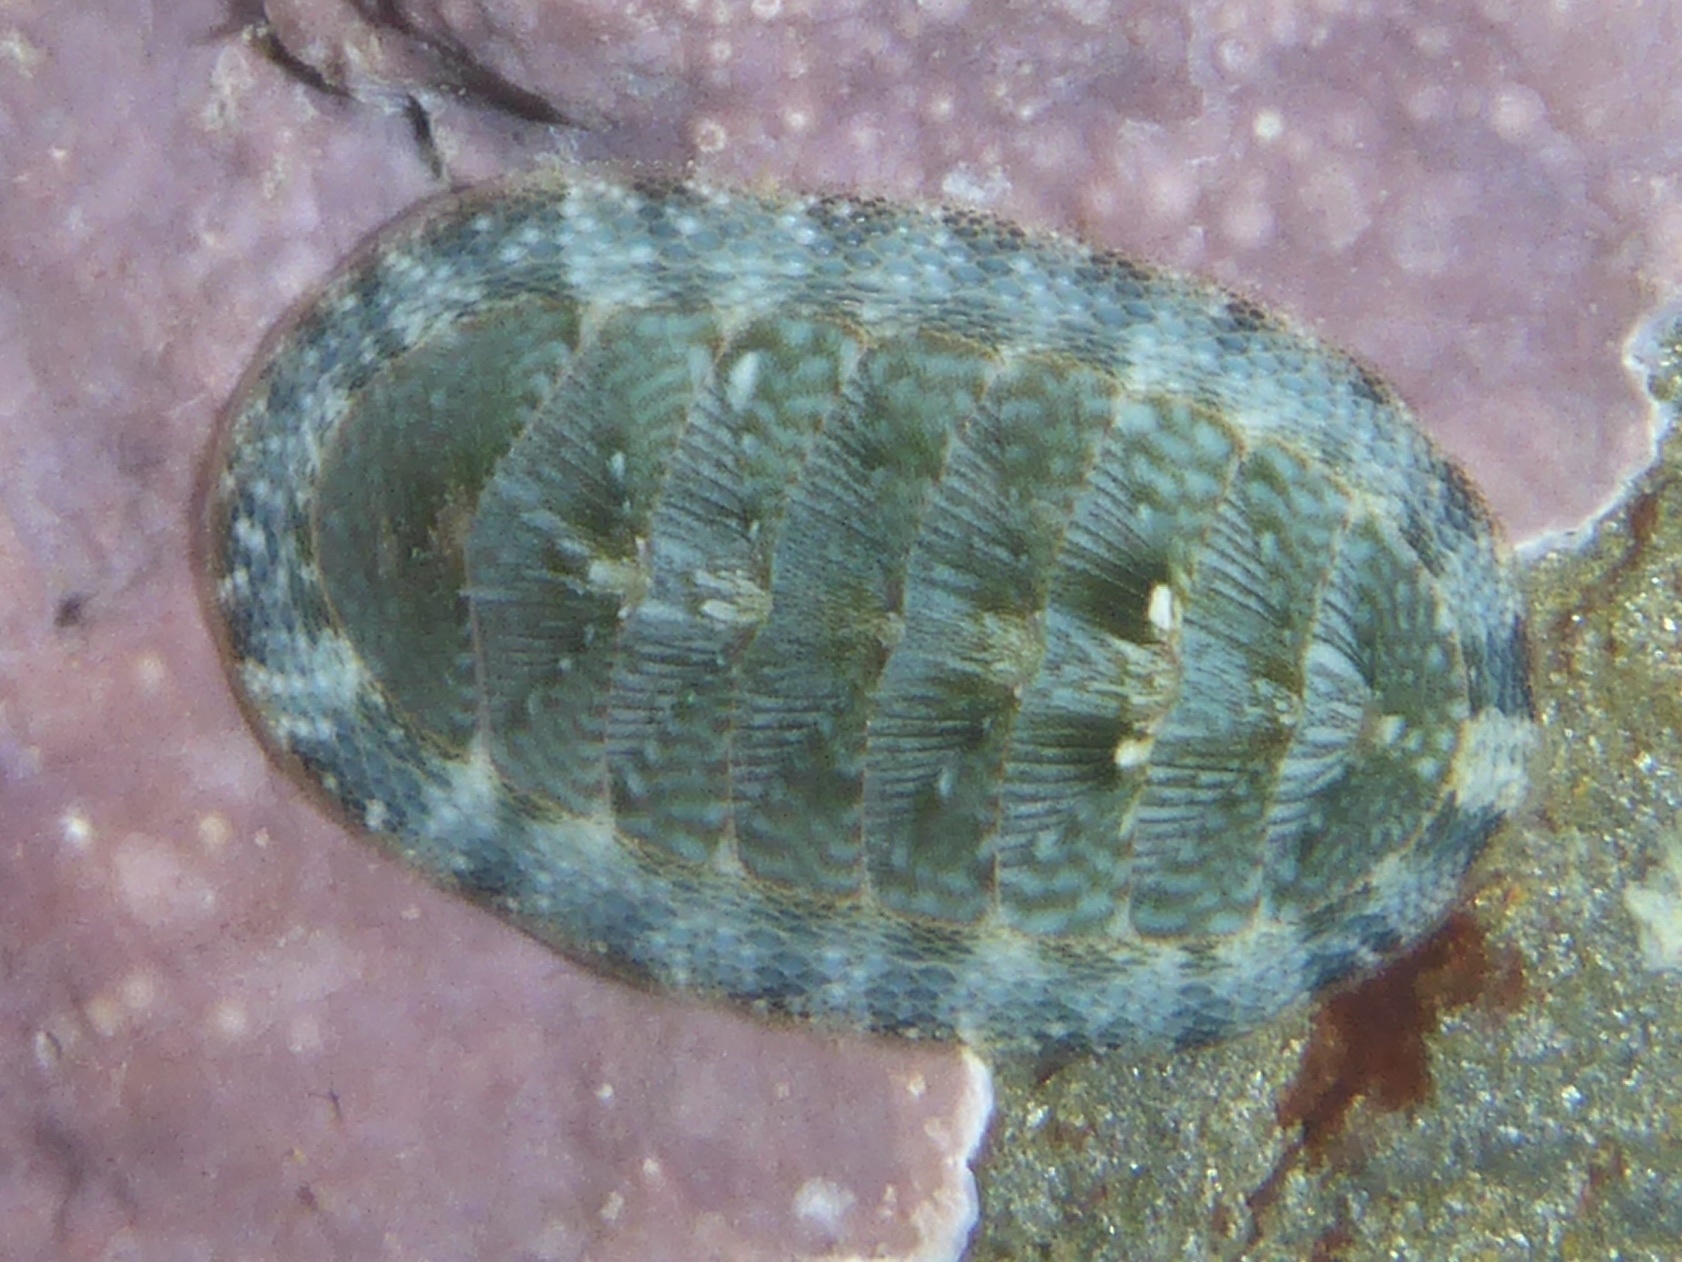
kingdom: Animalia
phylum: Mollusca
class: Polyplacophora
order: Chitonida
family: Chitonidae
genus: Rhyssoplax
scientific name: Rhyssoplax linsleyi
